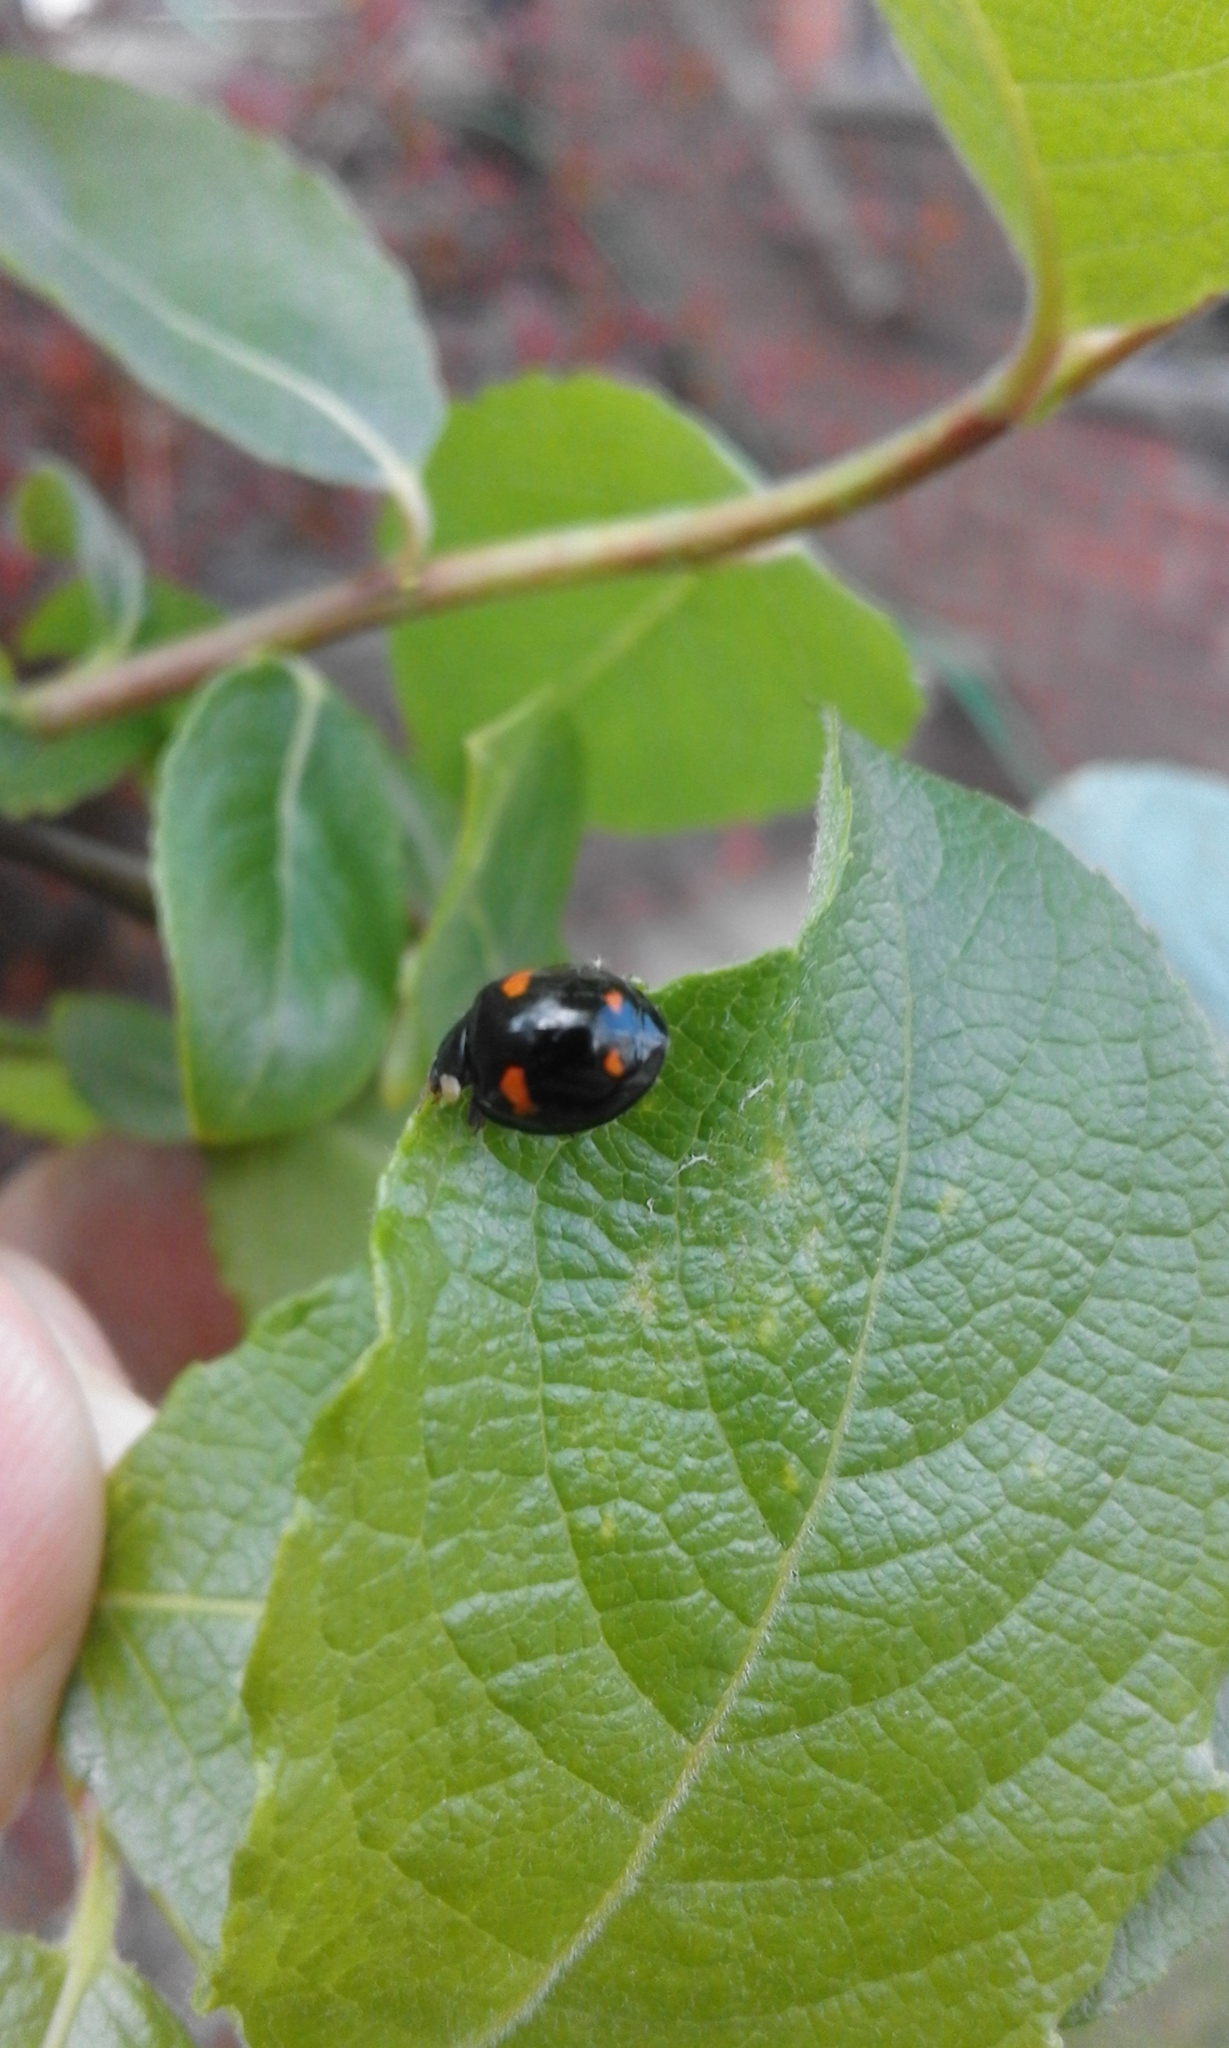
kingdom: Animalia
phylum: Arthropoda
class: Insecta
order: Coleoptera
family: Coccinellidae
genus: Harmonia
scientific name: Harmonia axyridis
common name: Harlequin ladybird
